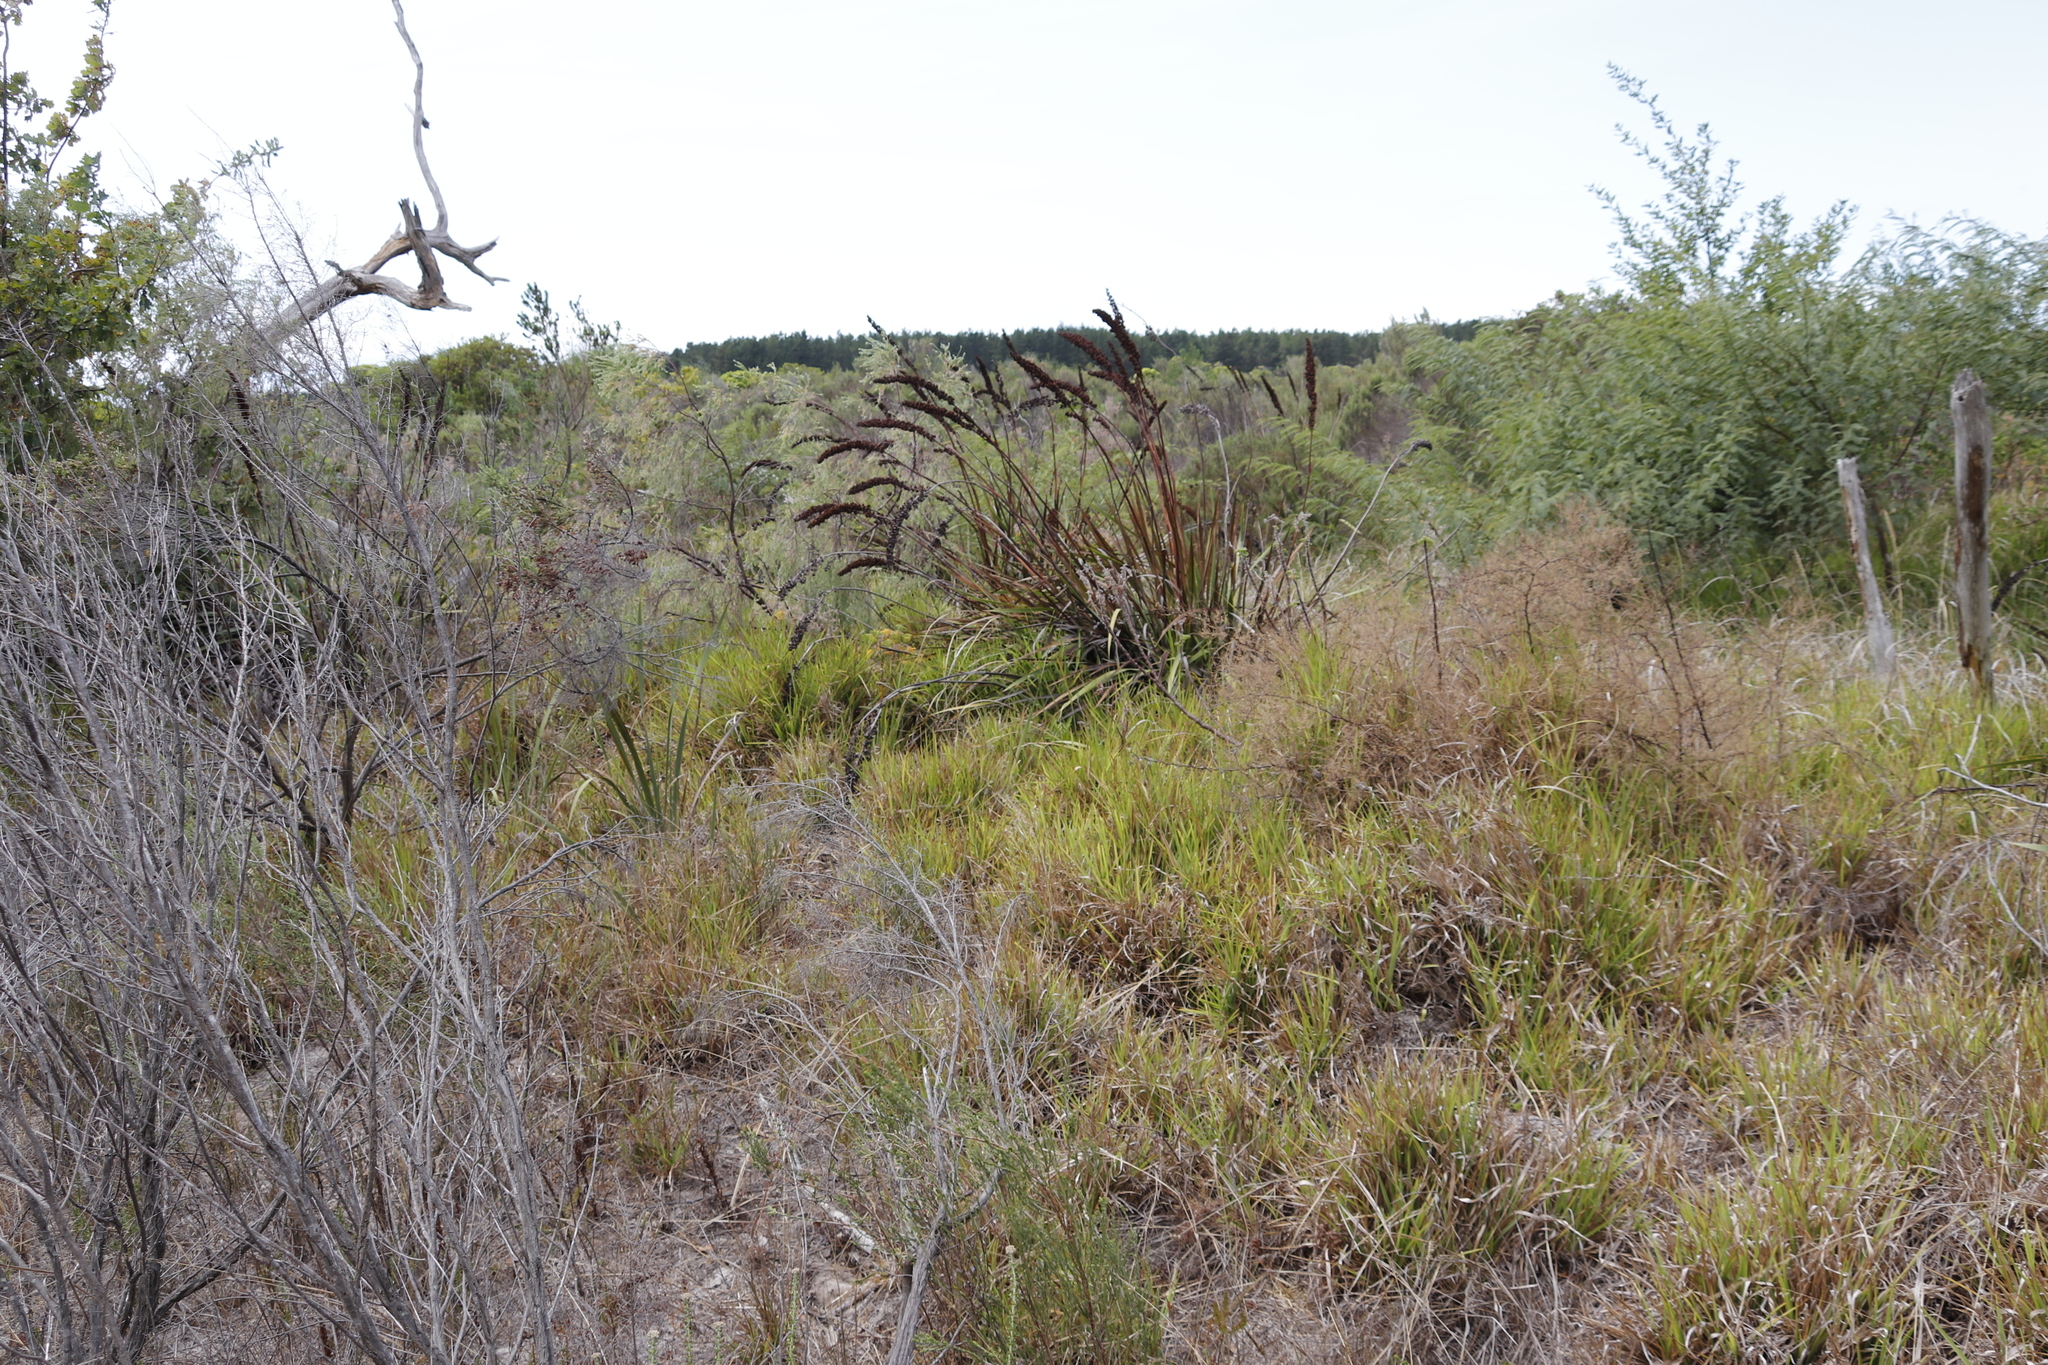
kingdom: Plantae
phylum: Tracheophyta
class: Liliopsida
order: Asparagales
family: Iridaceae
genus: Aristea
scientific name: Aristea capitata
